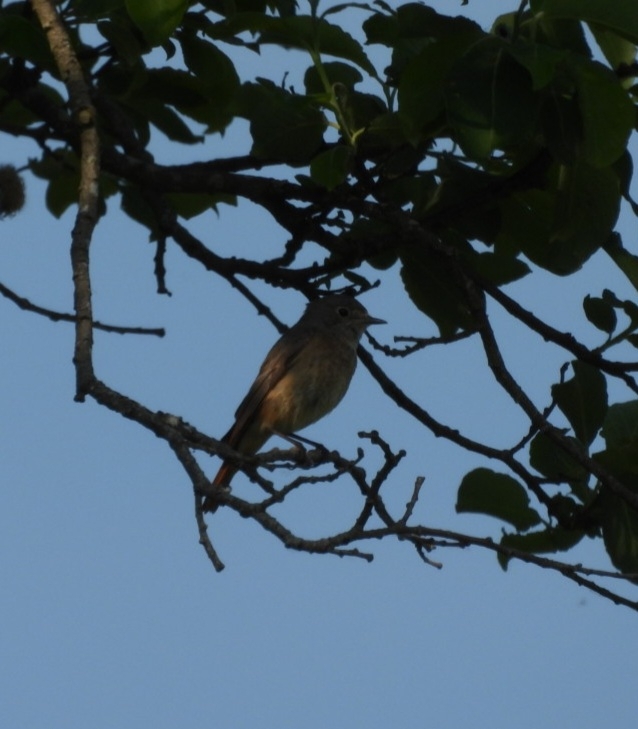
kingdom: Animalia
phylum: Chordata
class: Aves
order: Passeriformes
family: Muscicapidae
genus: Phoenicurus
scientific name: Phoenicurus phoenicurus
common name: Common redstart
